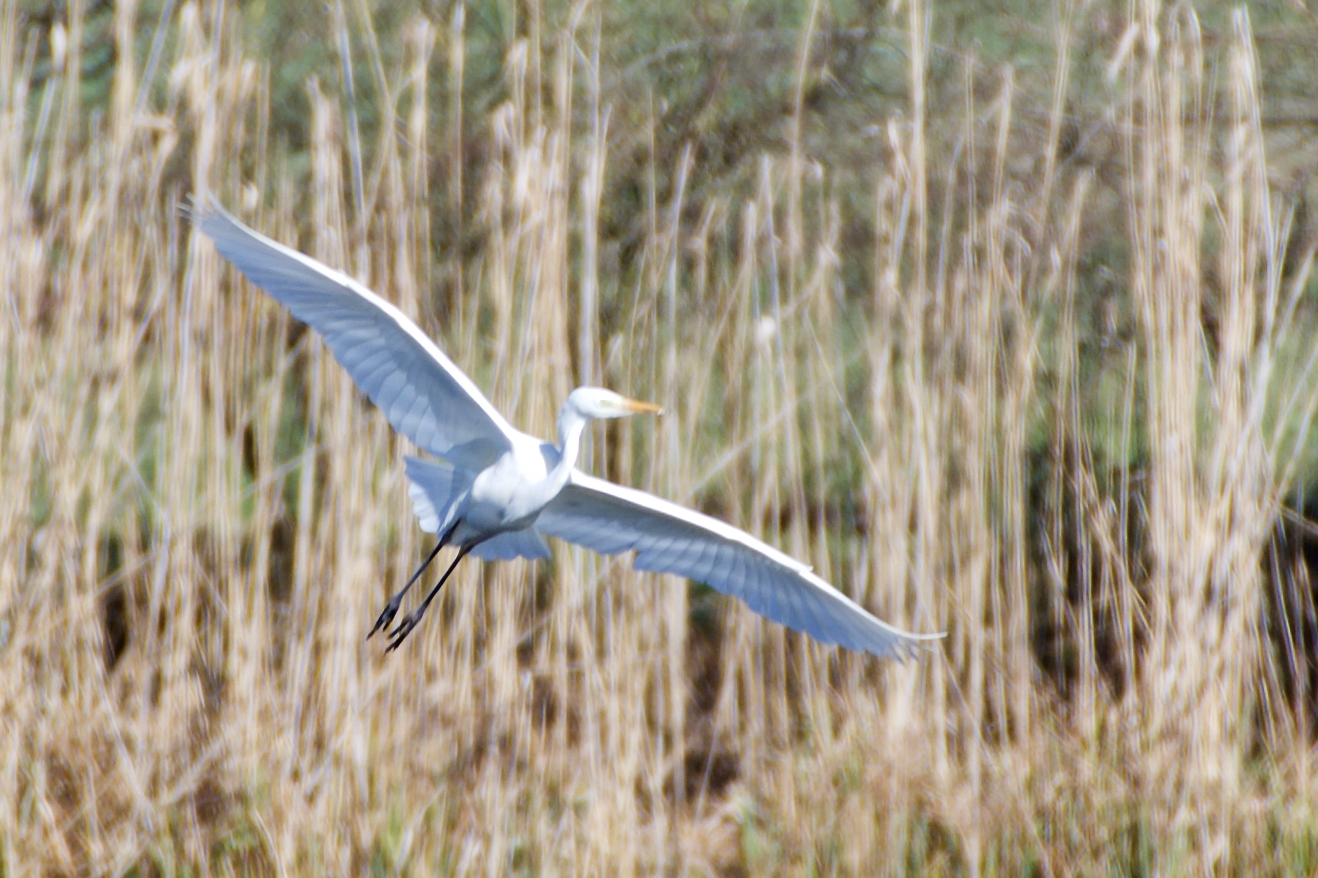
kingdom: Animalia
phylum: Chordata
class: Aves
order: Pelecaniformes
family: Ardeidae
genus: Ardea
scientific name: Ardea alba
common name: Great egret
